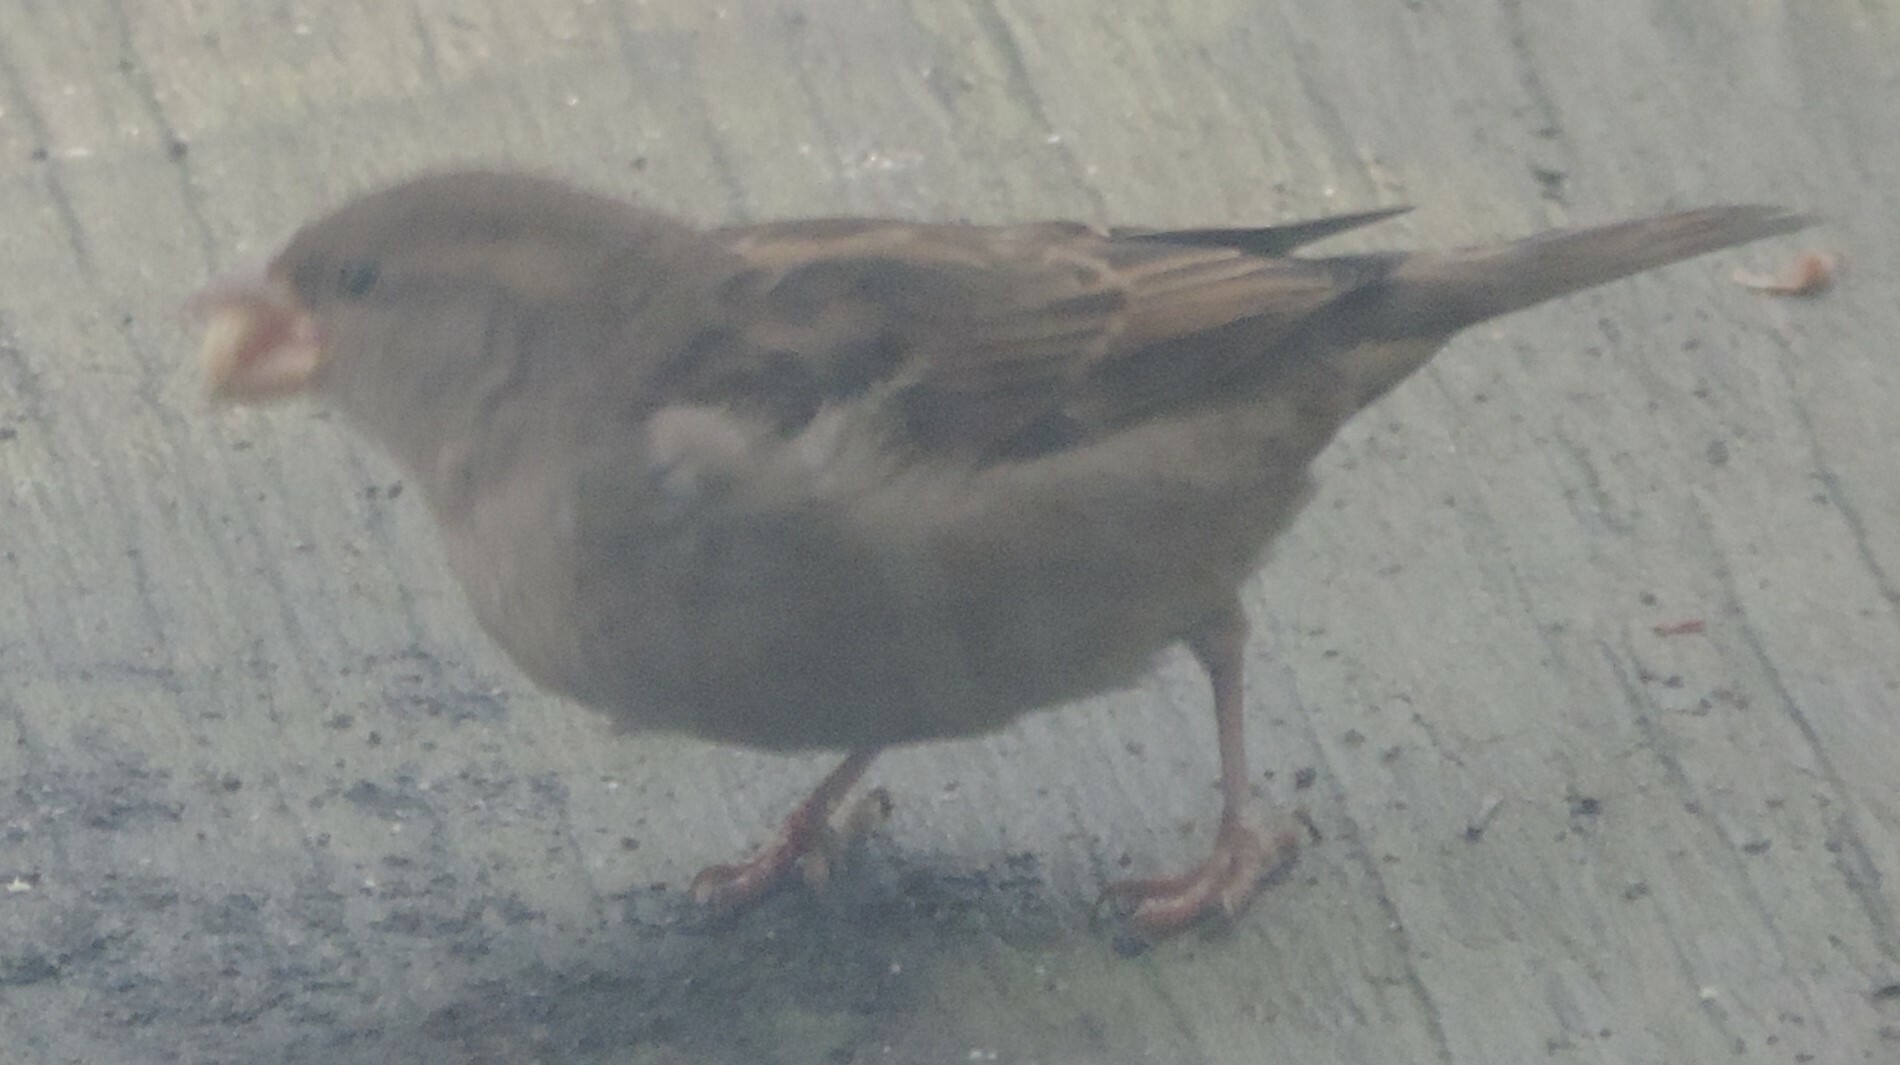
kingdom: Animalia
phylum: Chordata
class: Aves
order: Passeriformes
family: Passeridae
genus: Passer
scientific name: Passer domesticus
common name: House sparrow
